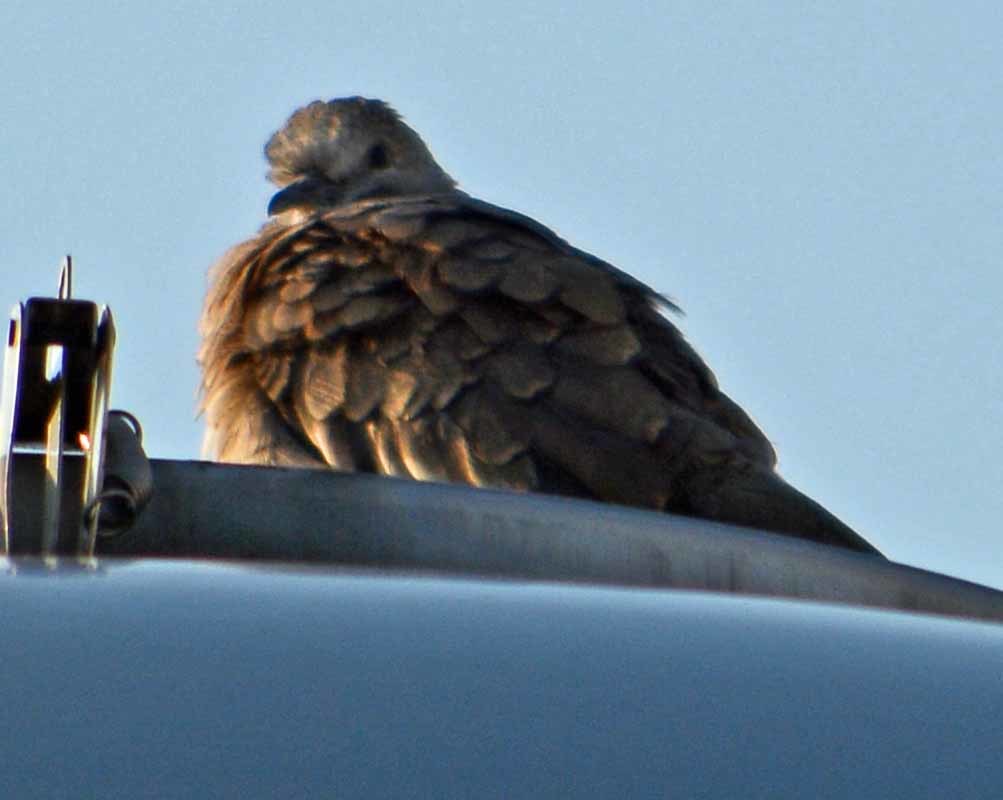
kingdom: Animalia
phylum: Chordata
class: Aves
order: Columbiformes
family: Columbidae
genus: Columbina
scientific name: Columbina inca
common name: Inca dove
